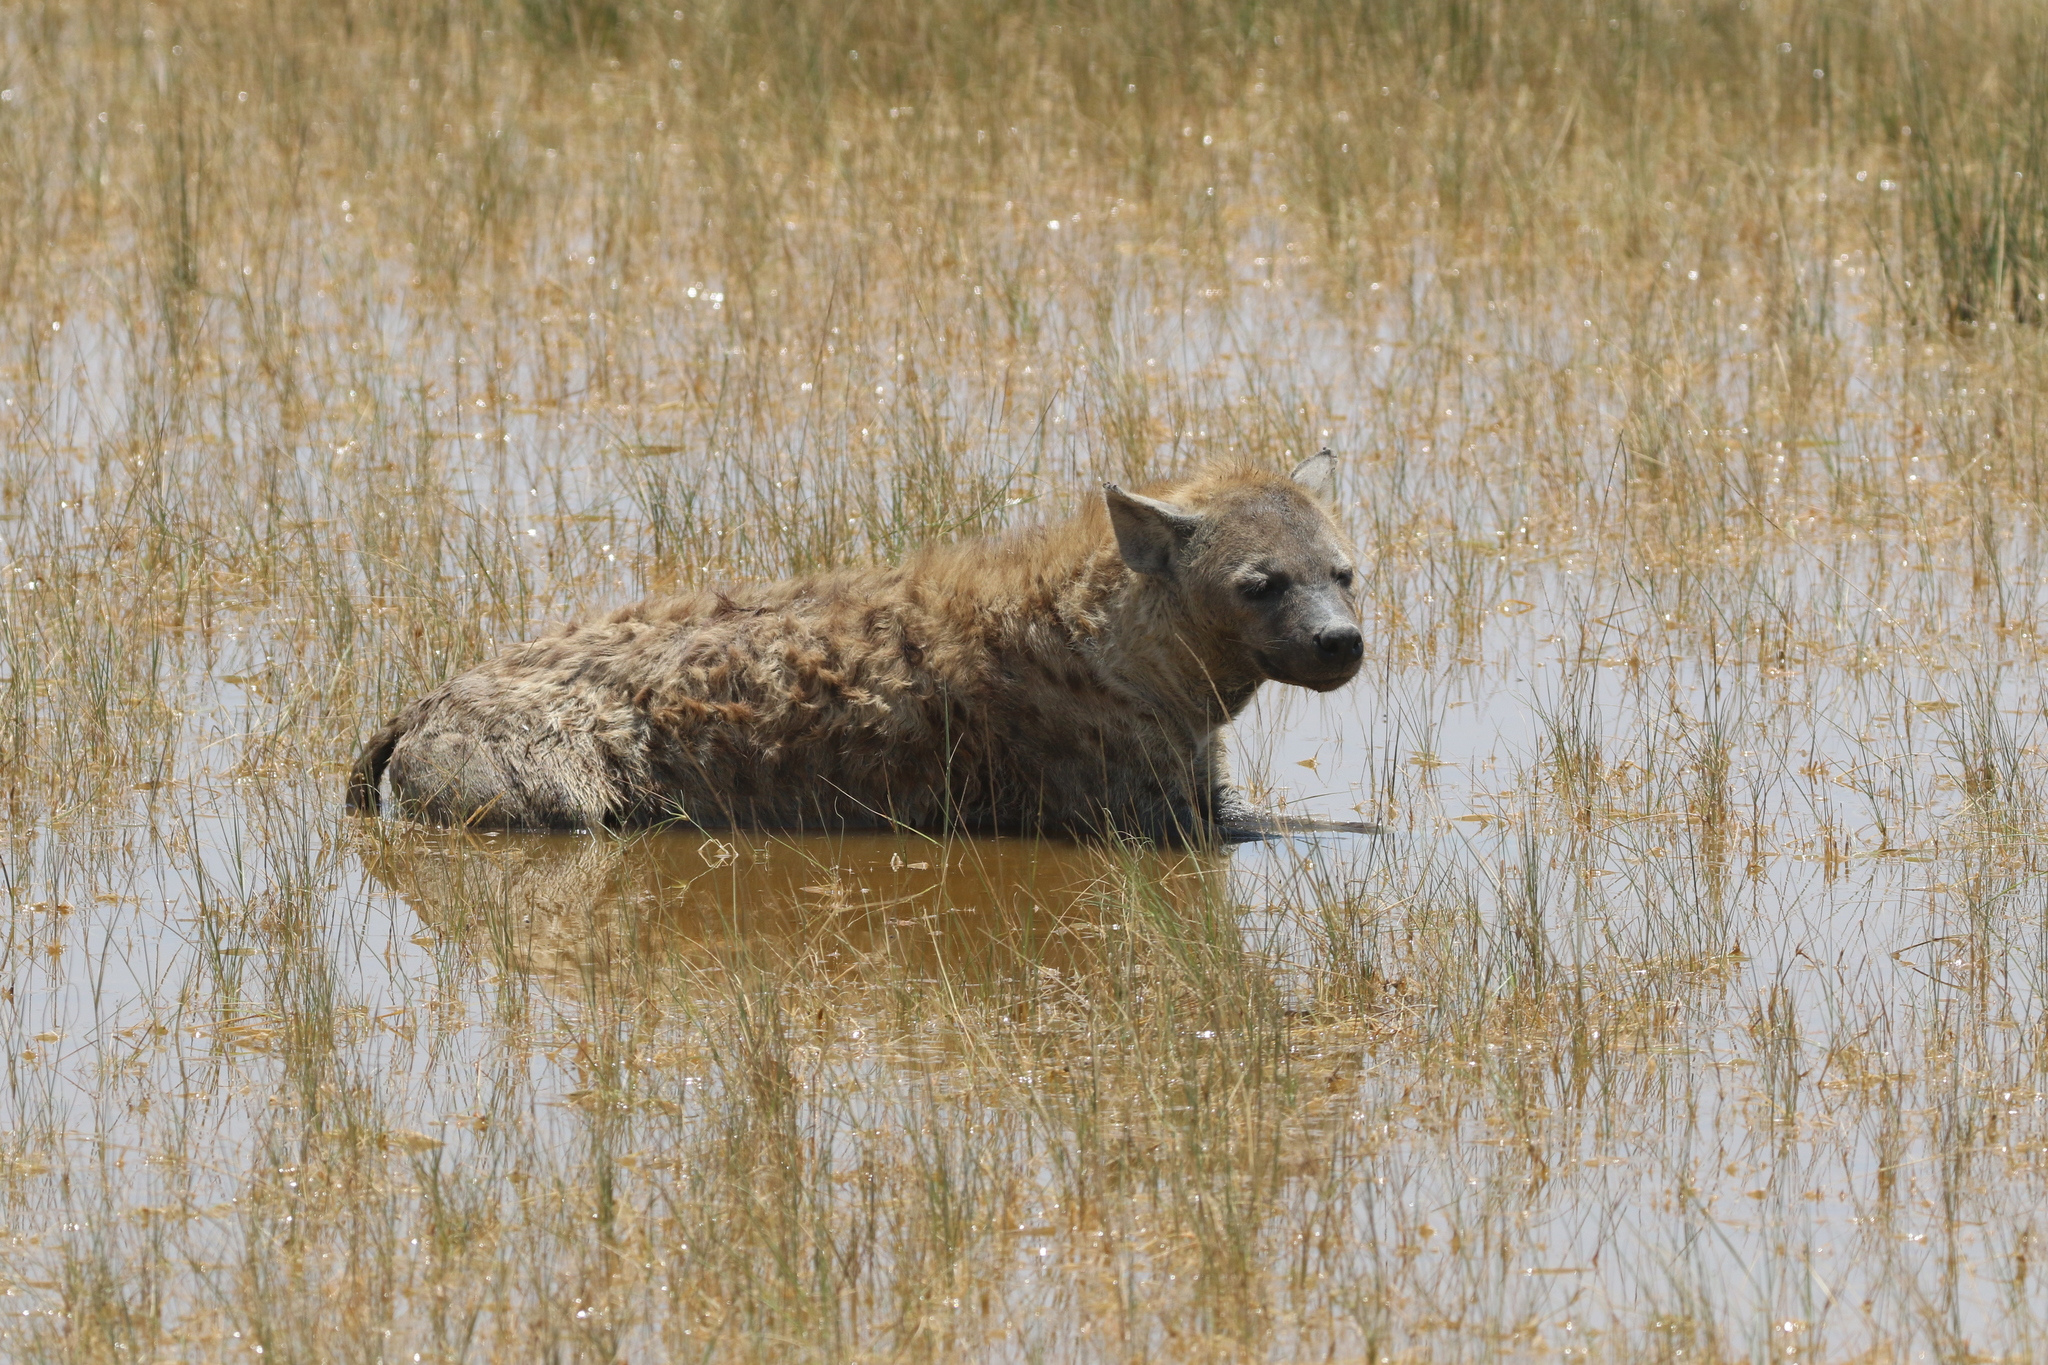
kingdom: Animalia
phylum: Chordata
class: Mammalia
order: Carnivora
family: Hyaenidae
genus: Crocuta
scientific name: Crocuta crocuta
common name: Spotted hyaena
